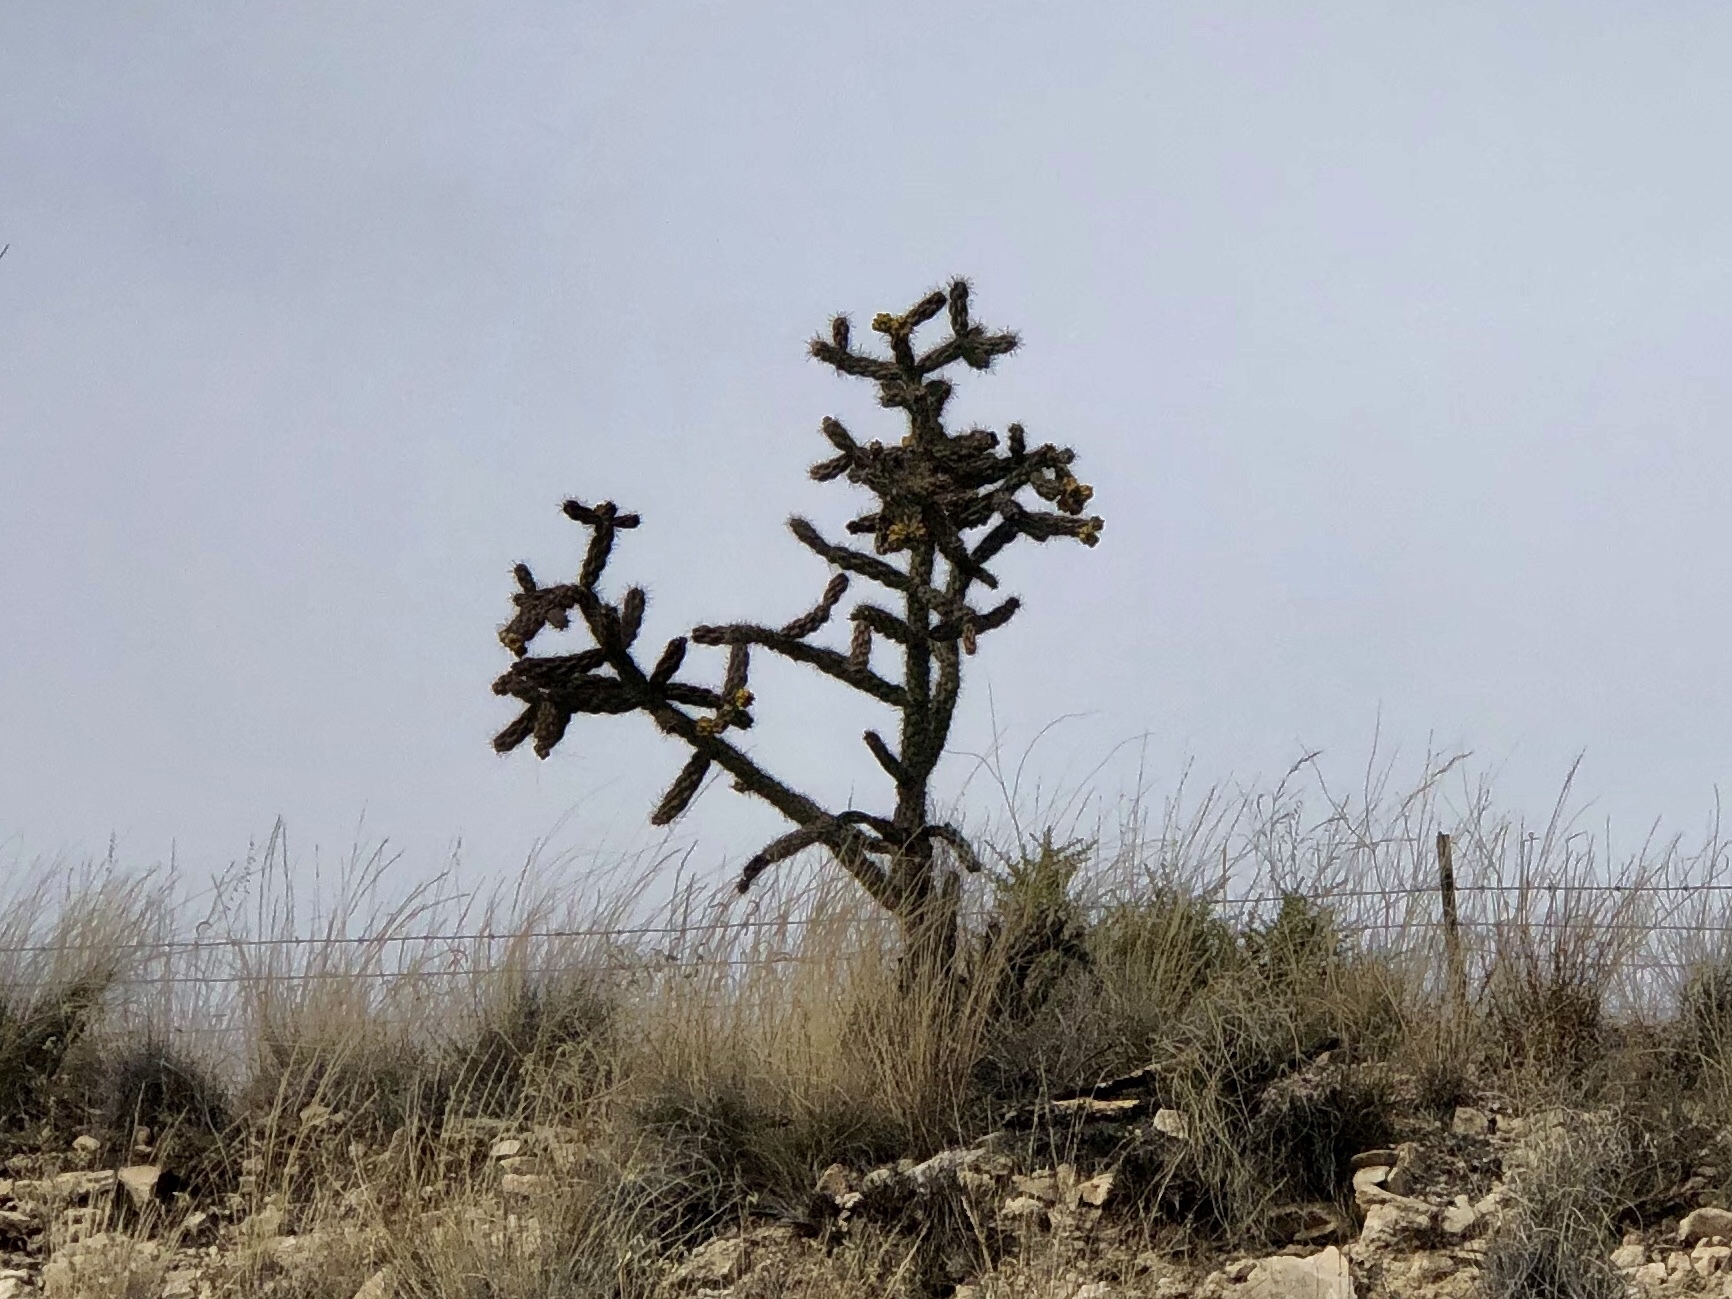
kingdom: Plantae
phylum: Tracheophyta
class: Magnoliopsida
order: Caryophyllales
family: Cactaceae
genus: Cylindropuntia
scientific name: Cylindropuntia imbricata
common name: Candelabrum cactus
